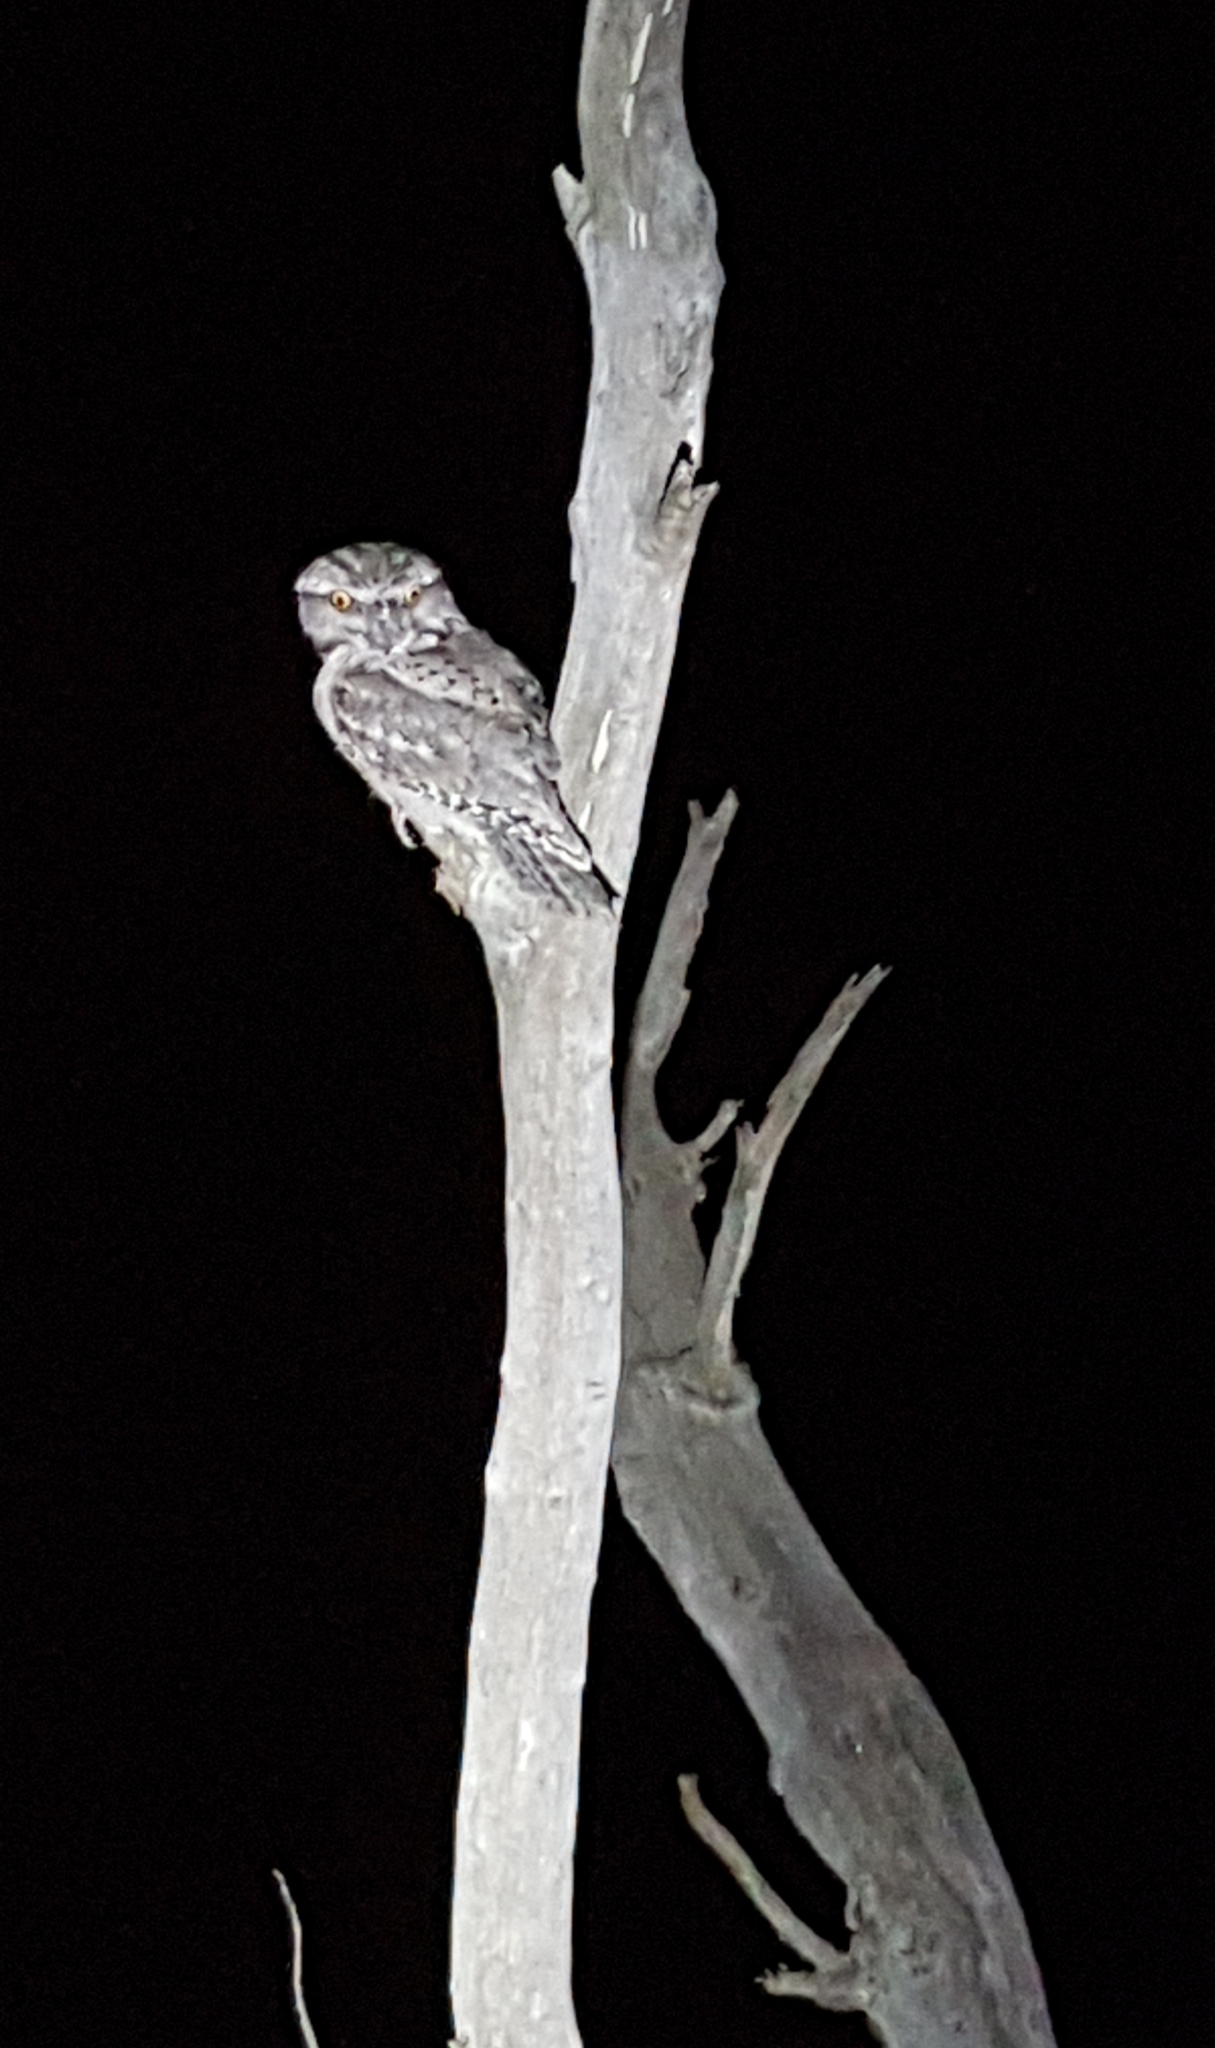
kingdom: Animalia
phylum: Chordata
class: Aves
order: Caprimulgiformes
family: Podargidae
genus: Podargus
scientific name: Podargus strigoides
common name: Tawny frogmouth
